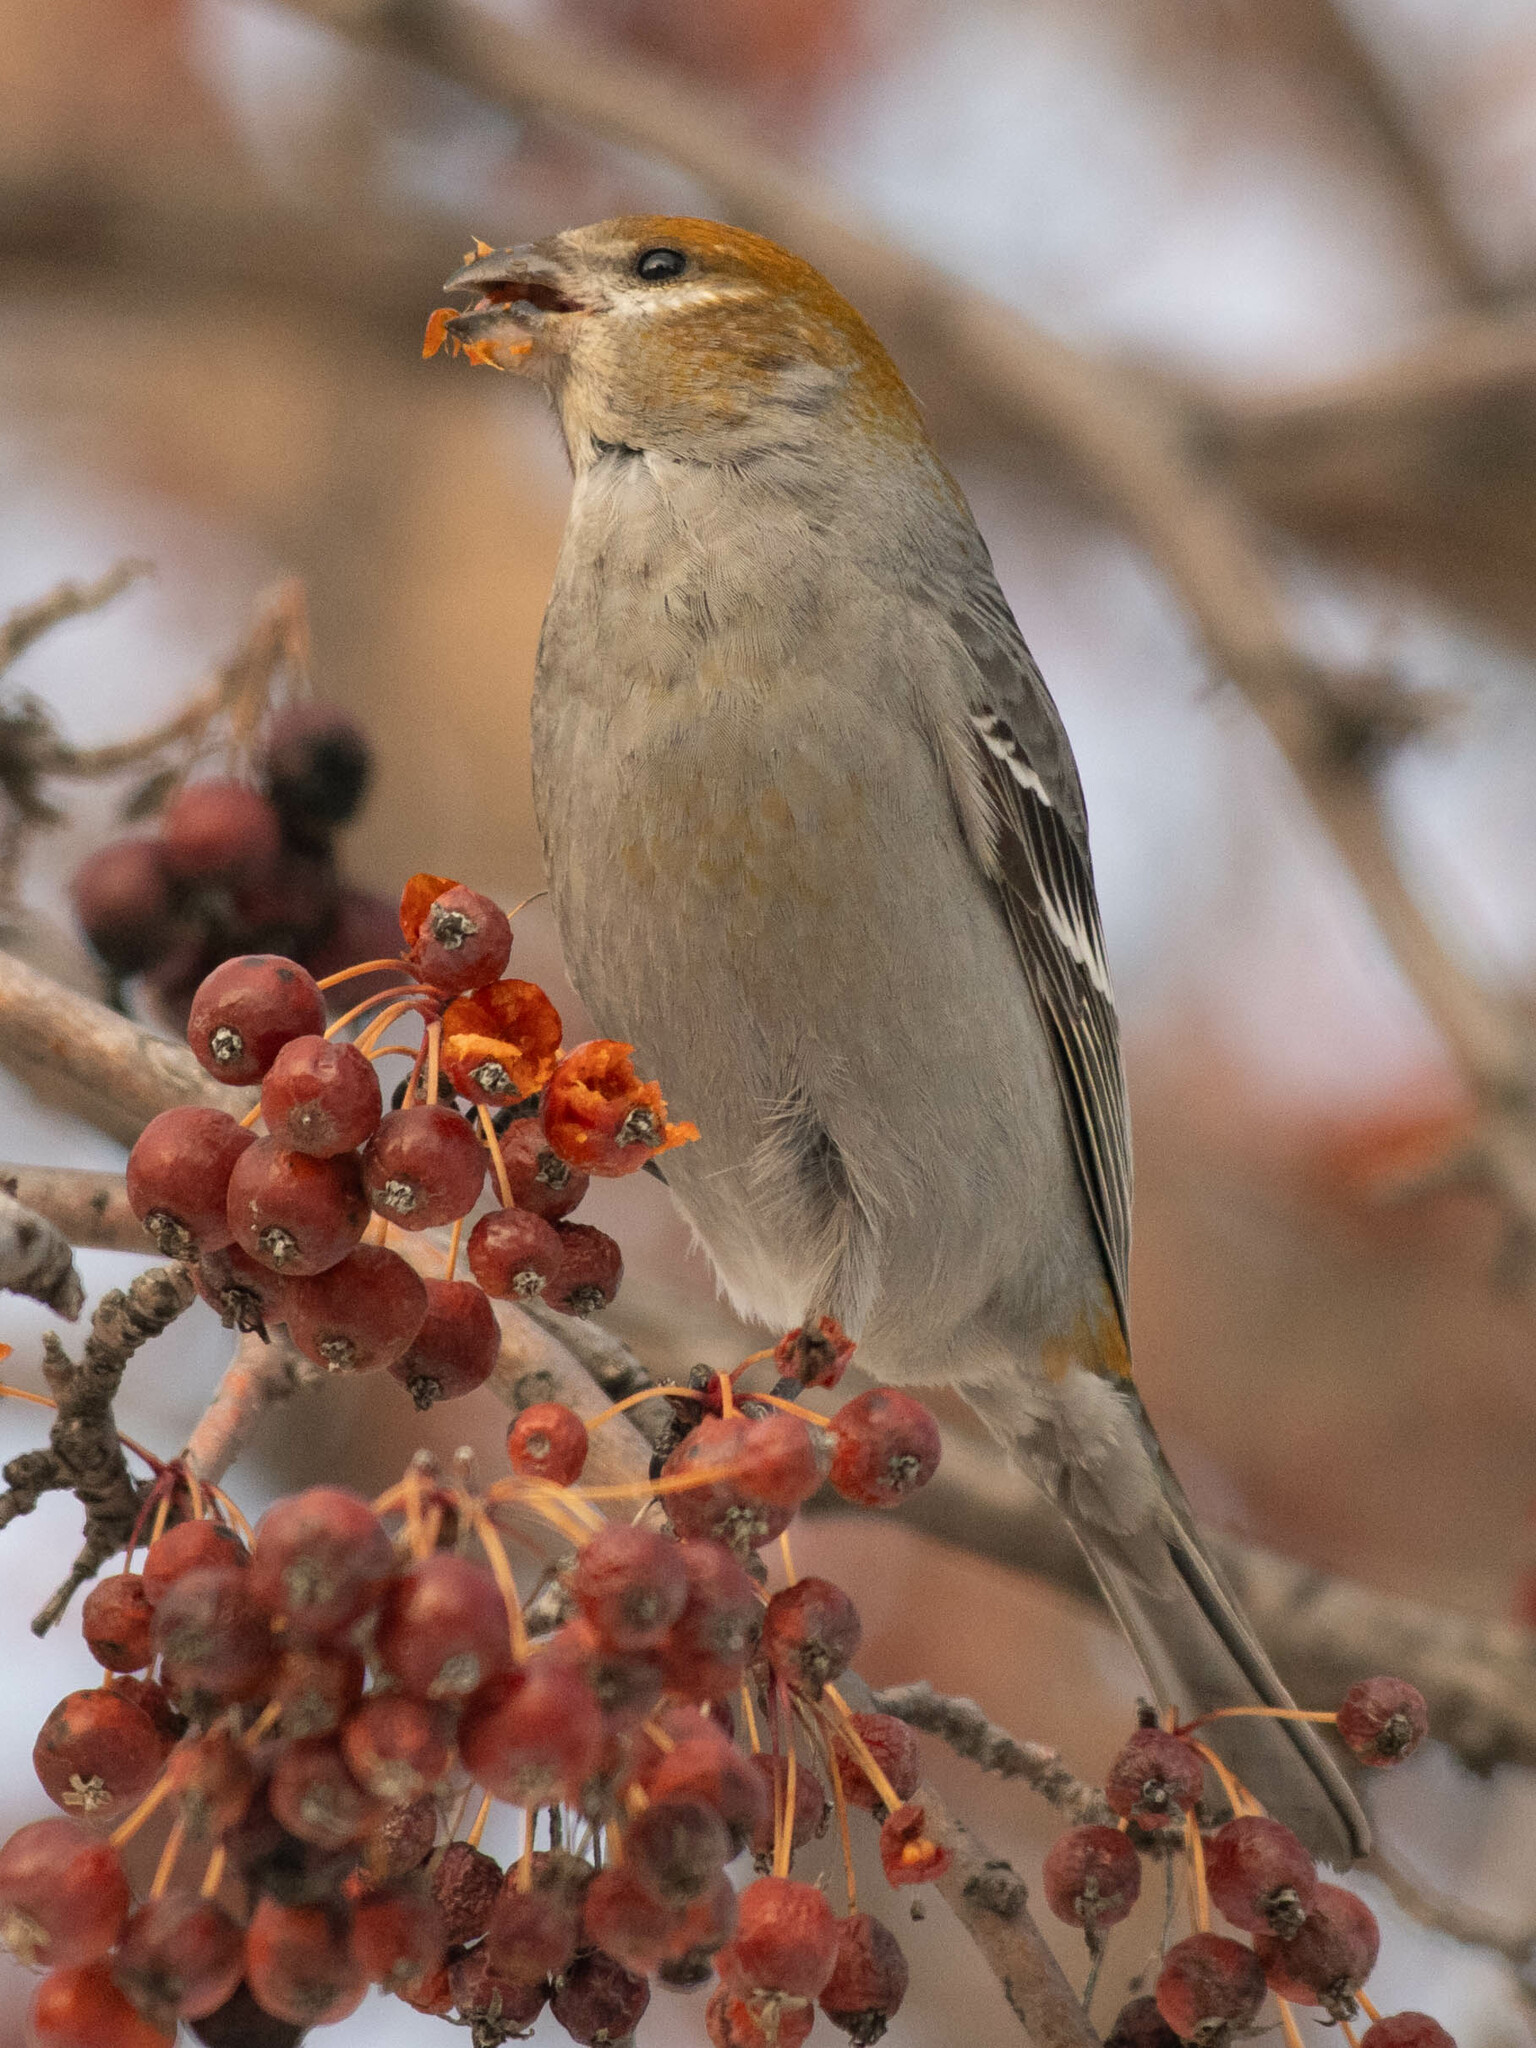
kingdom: Animalia
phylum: Chordata
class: Aves
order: Passeriformes
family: Fringillidae
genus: Pinicola
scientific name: Pinicola enucleator
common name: Pine grosbeak
